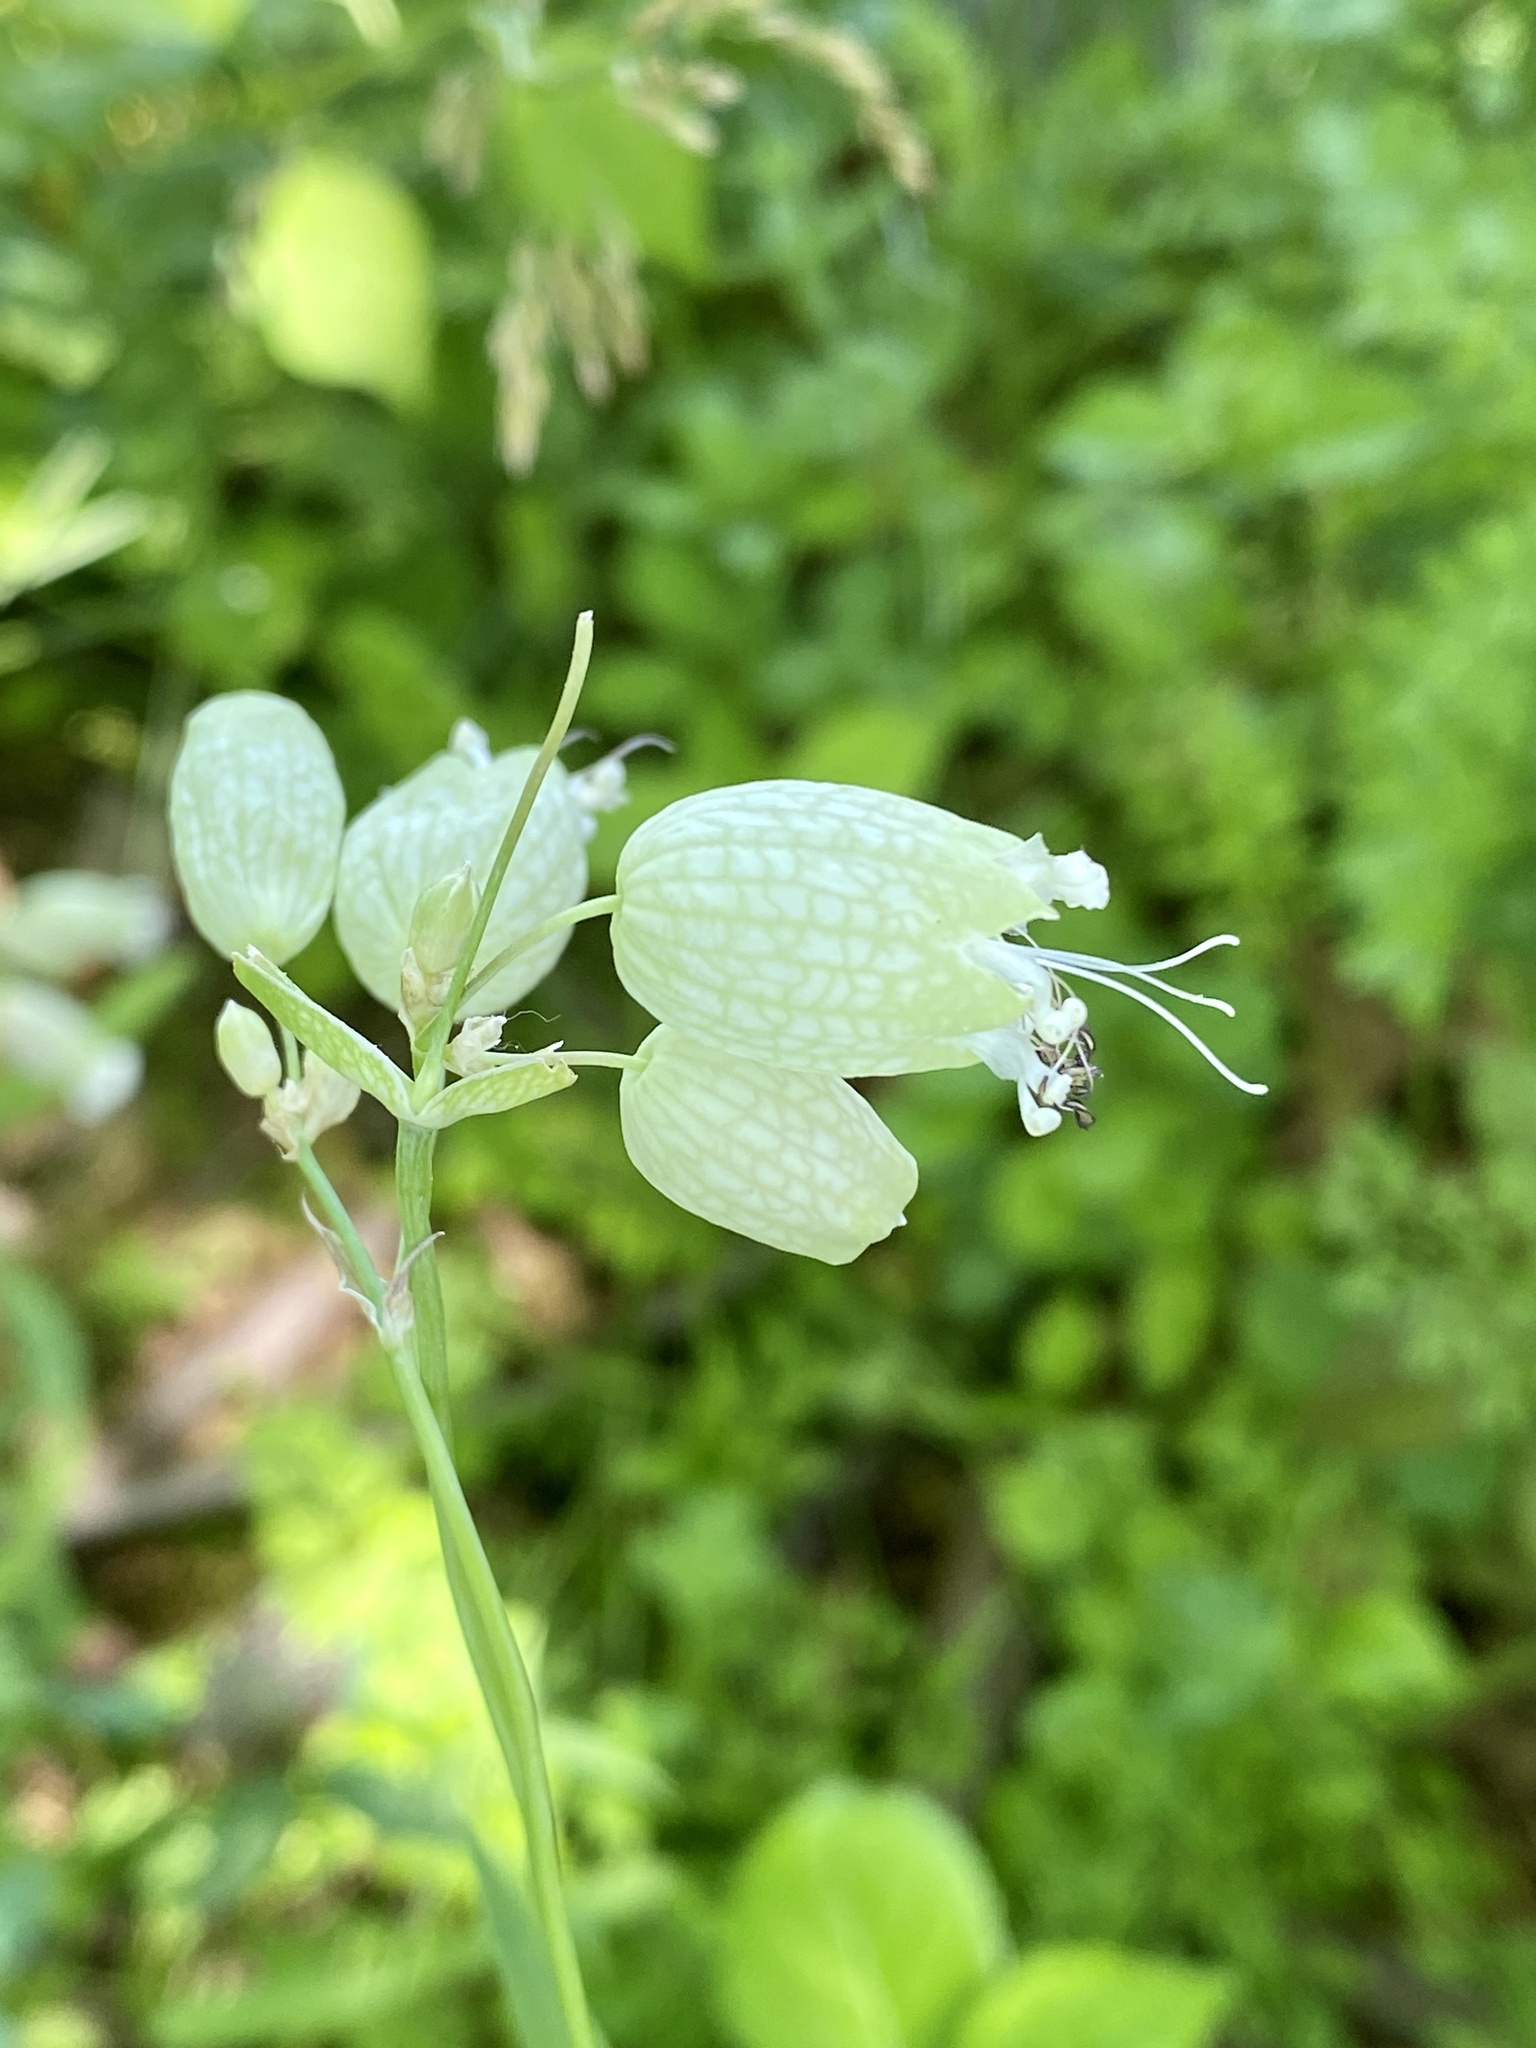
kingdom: Plantae
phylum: Tracheophyta
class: Magnoliopsida
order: Caryophyllales
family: Caryophyllaceae
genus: Silene
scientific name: Silene vulgaris
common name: Bladder campion
